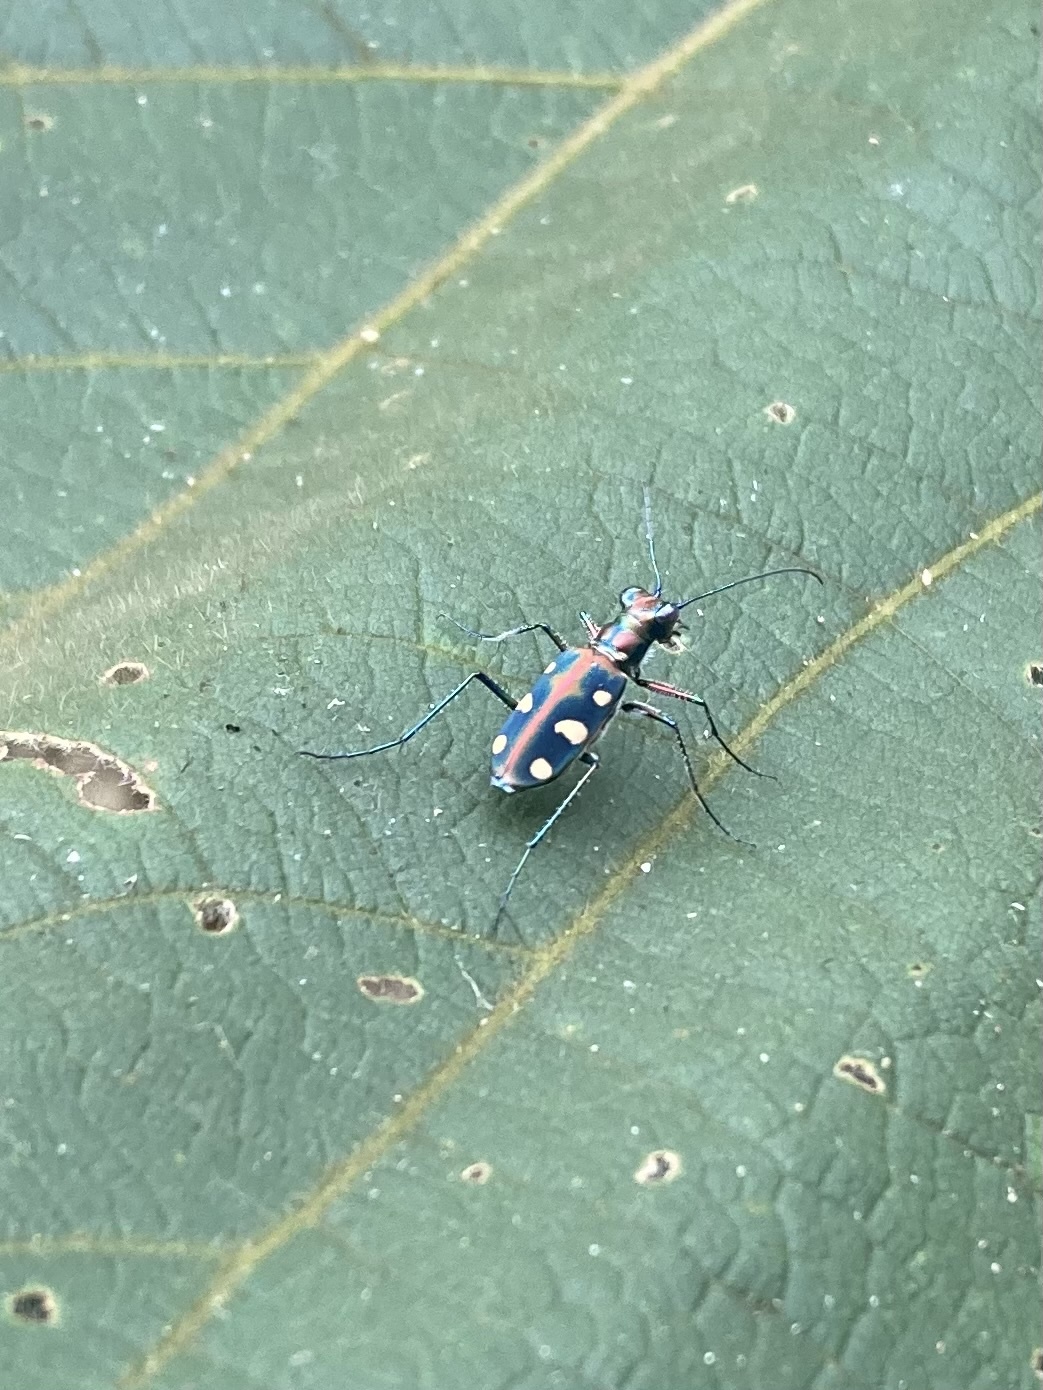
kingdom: Animalia
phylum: Arthropoda
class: Insecta
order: Coleoptera
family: Carabidae
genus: Cicindela
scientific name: Cicindela aurulenta
